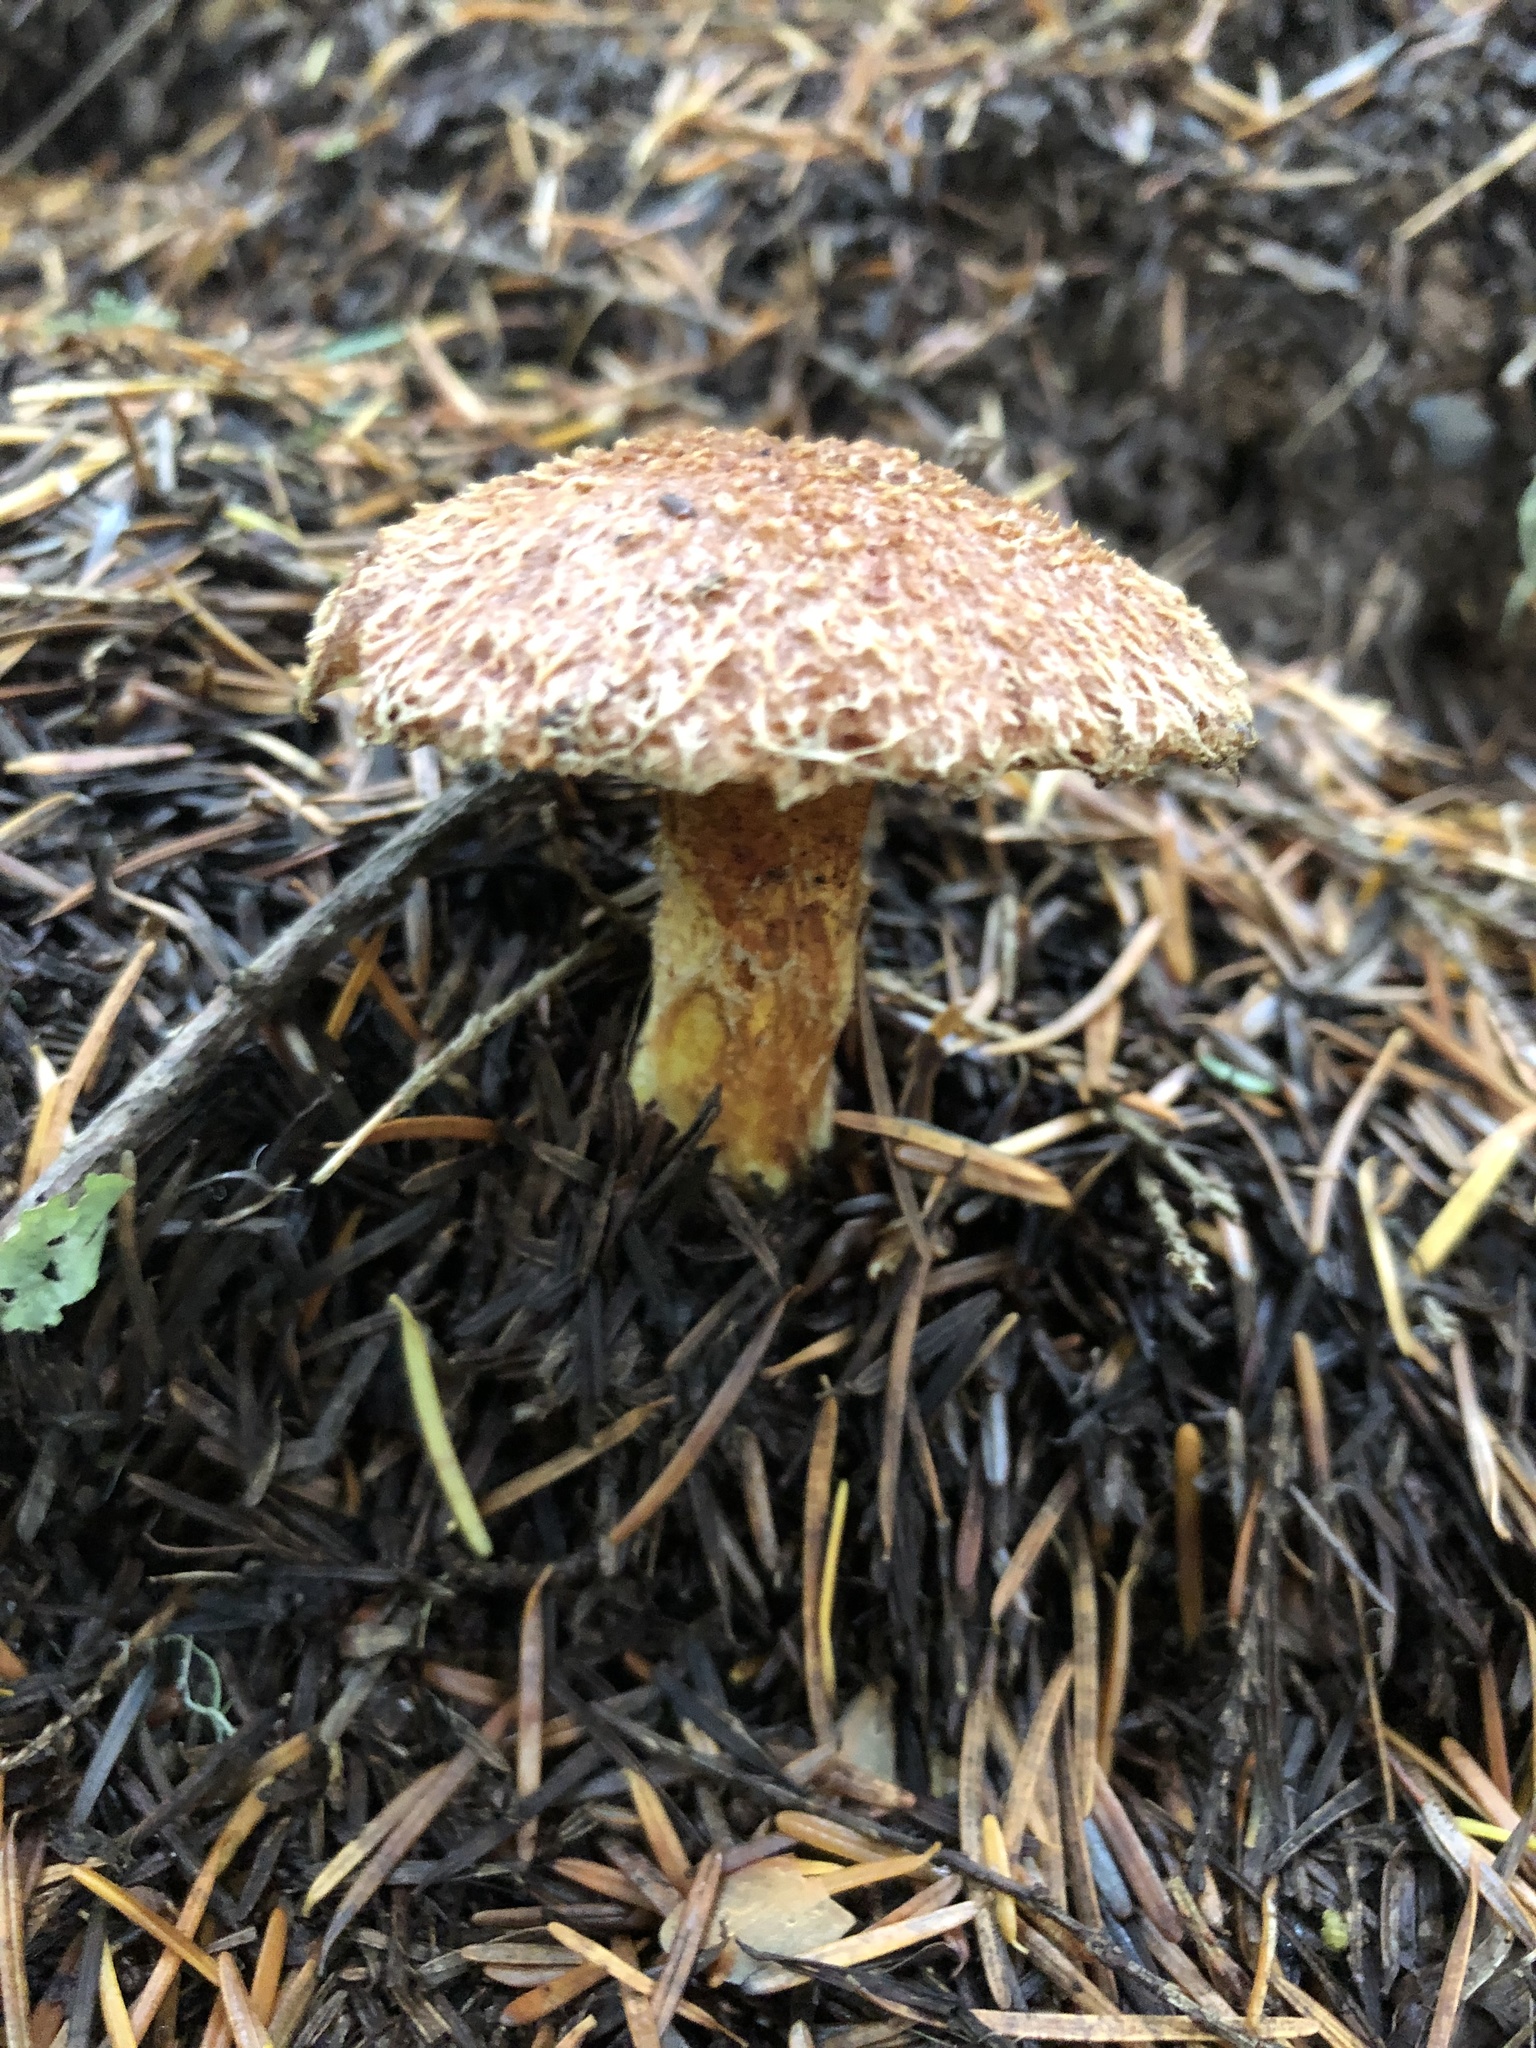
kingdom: Fungi
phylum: Basidiomycota
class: Agaricomycetes
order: Boletales
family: Suillaceae
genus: Suillus
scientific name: Suillus lakei
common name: Western painted suillus
